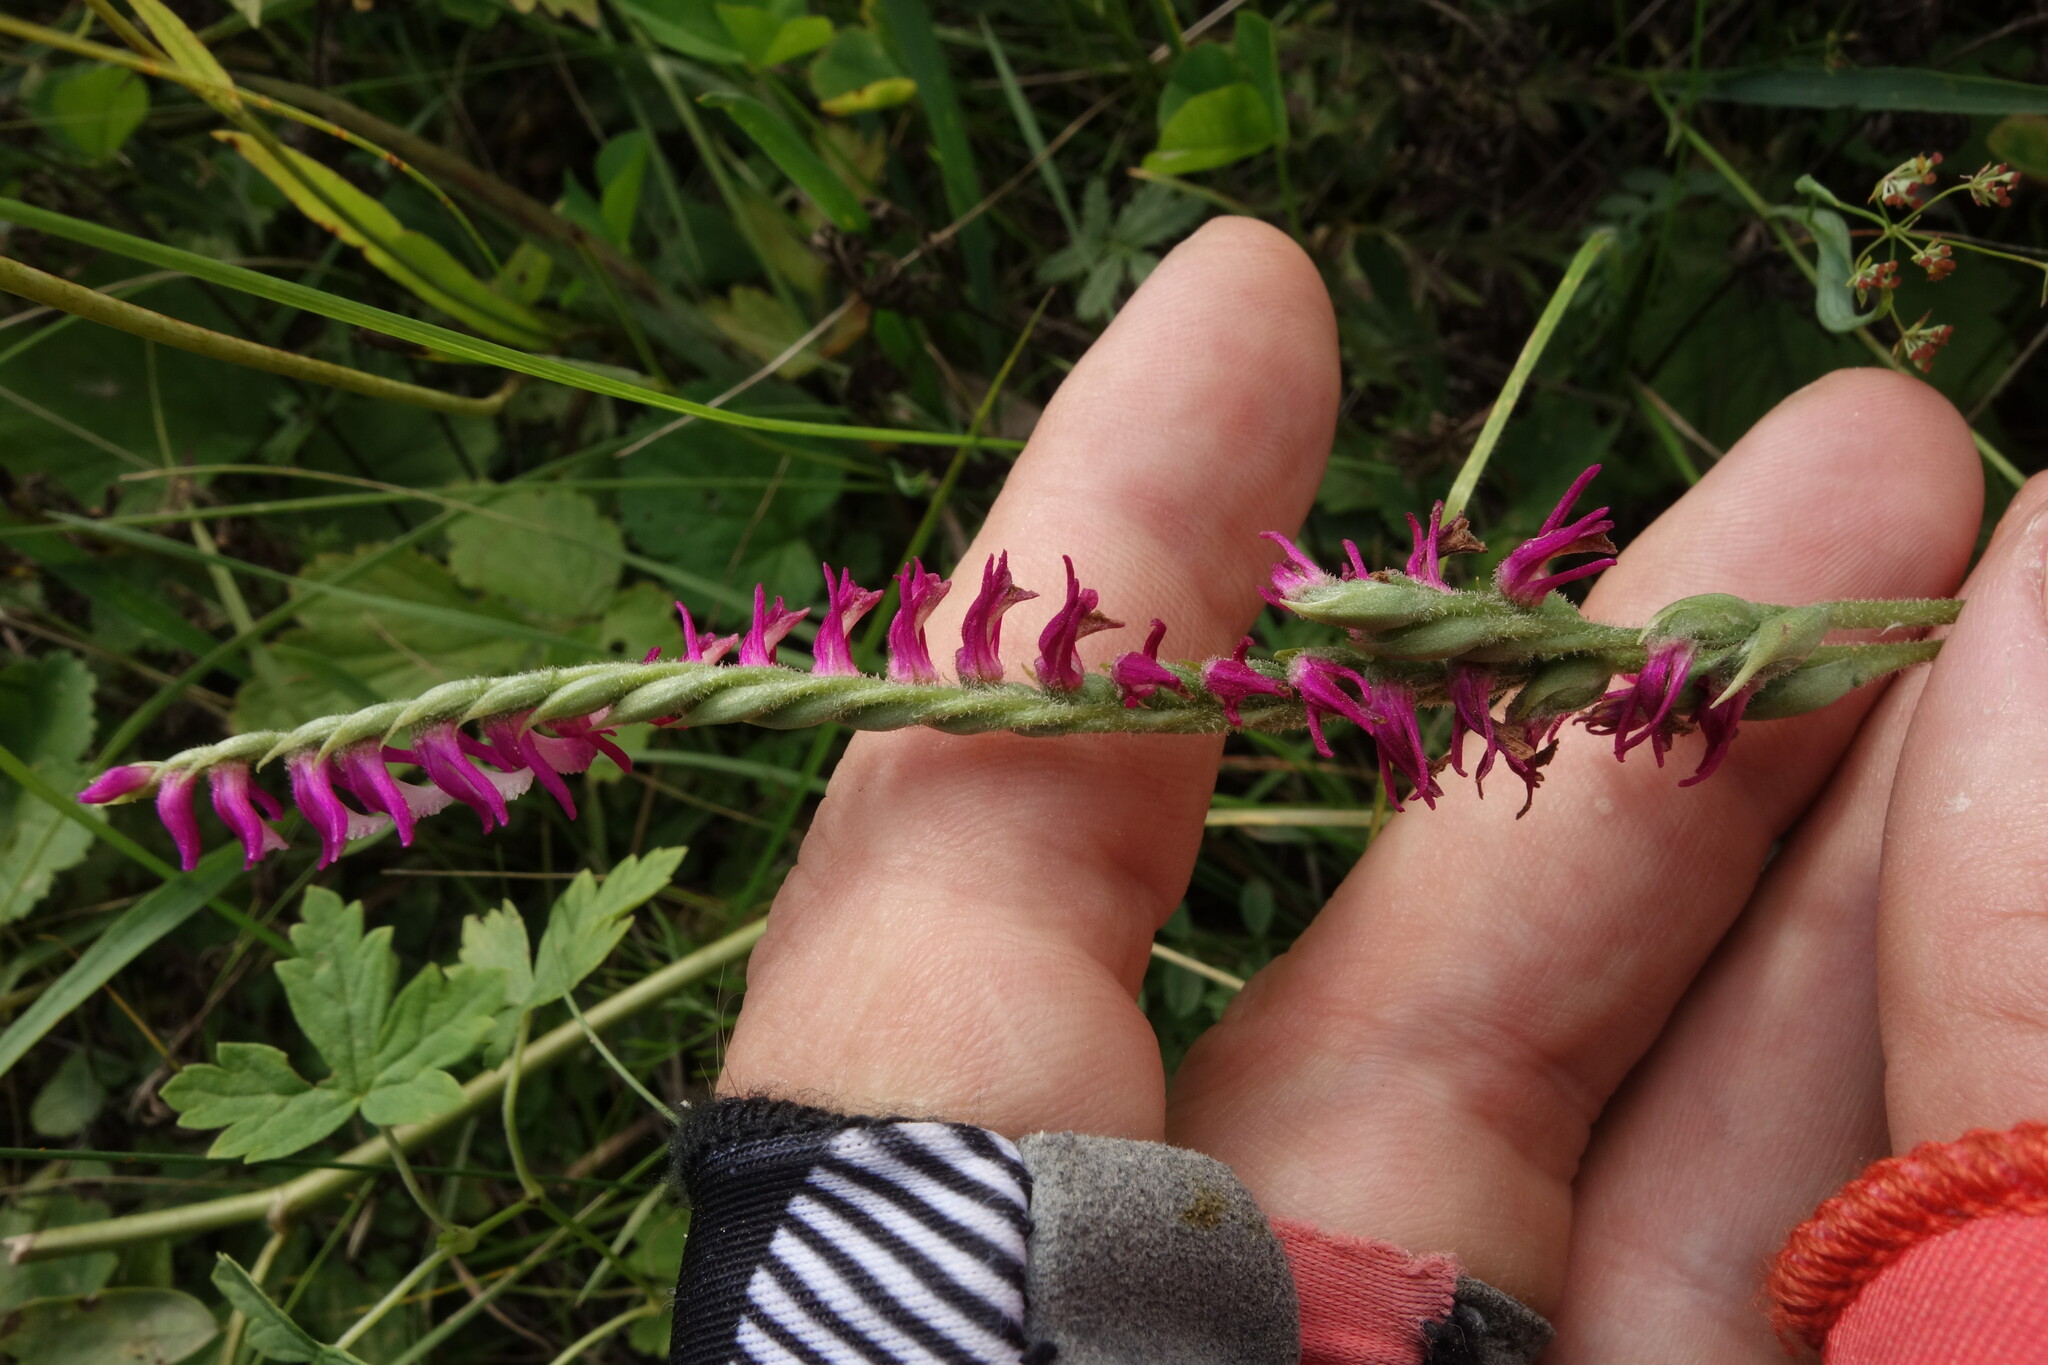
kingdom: Plantae
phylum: Tracheophyta
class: Liliopsida
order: Asparagales
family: Orchidaceae
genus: Spiranthes
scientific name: Spiranthes australis
